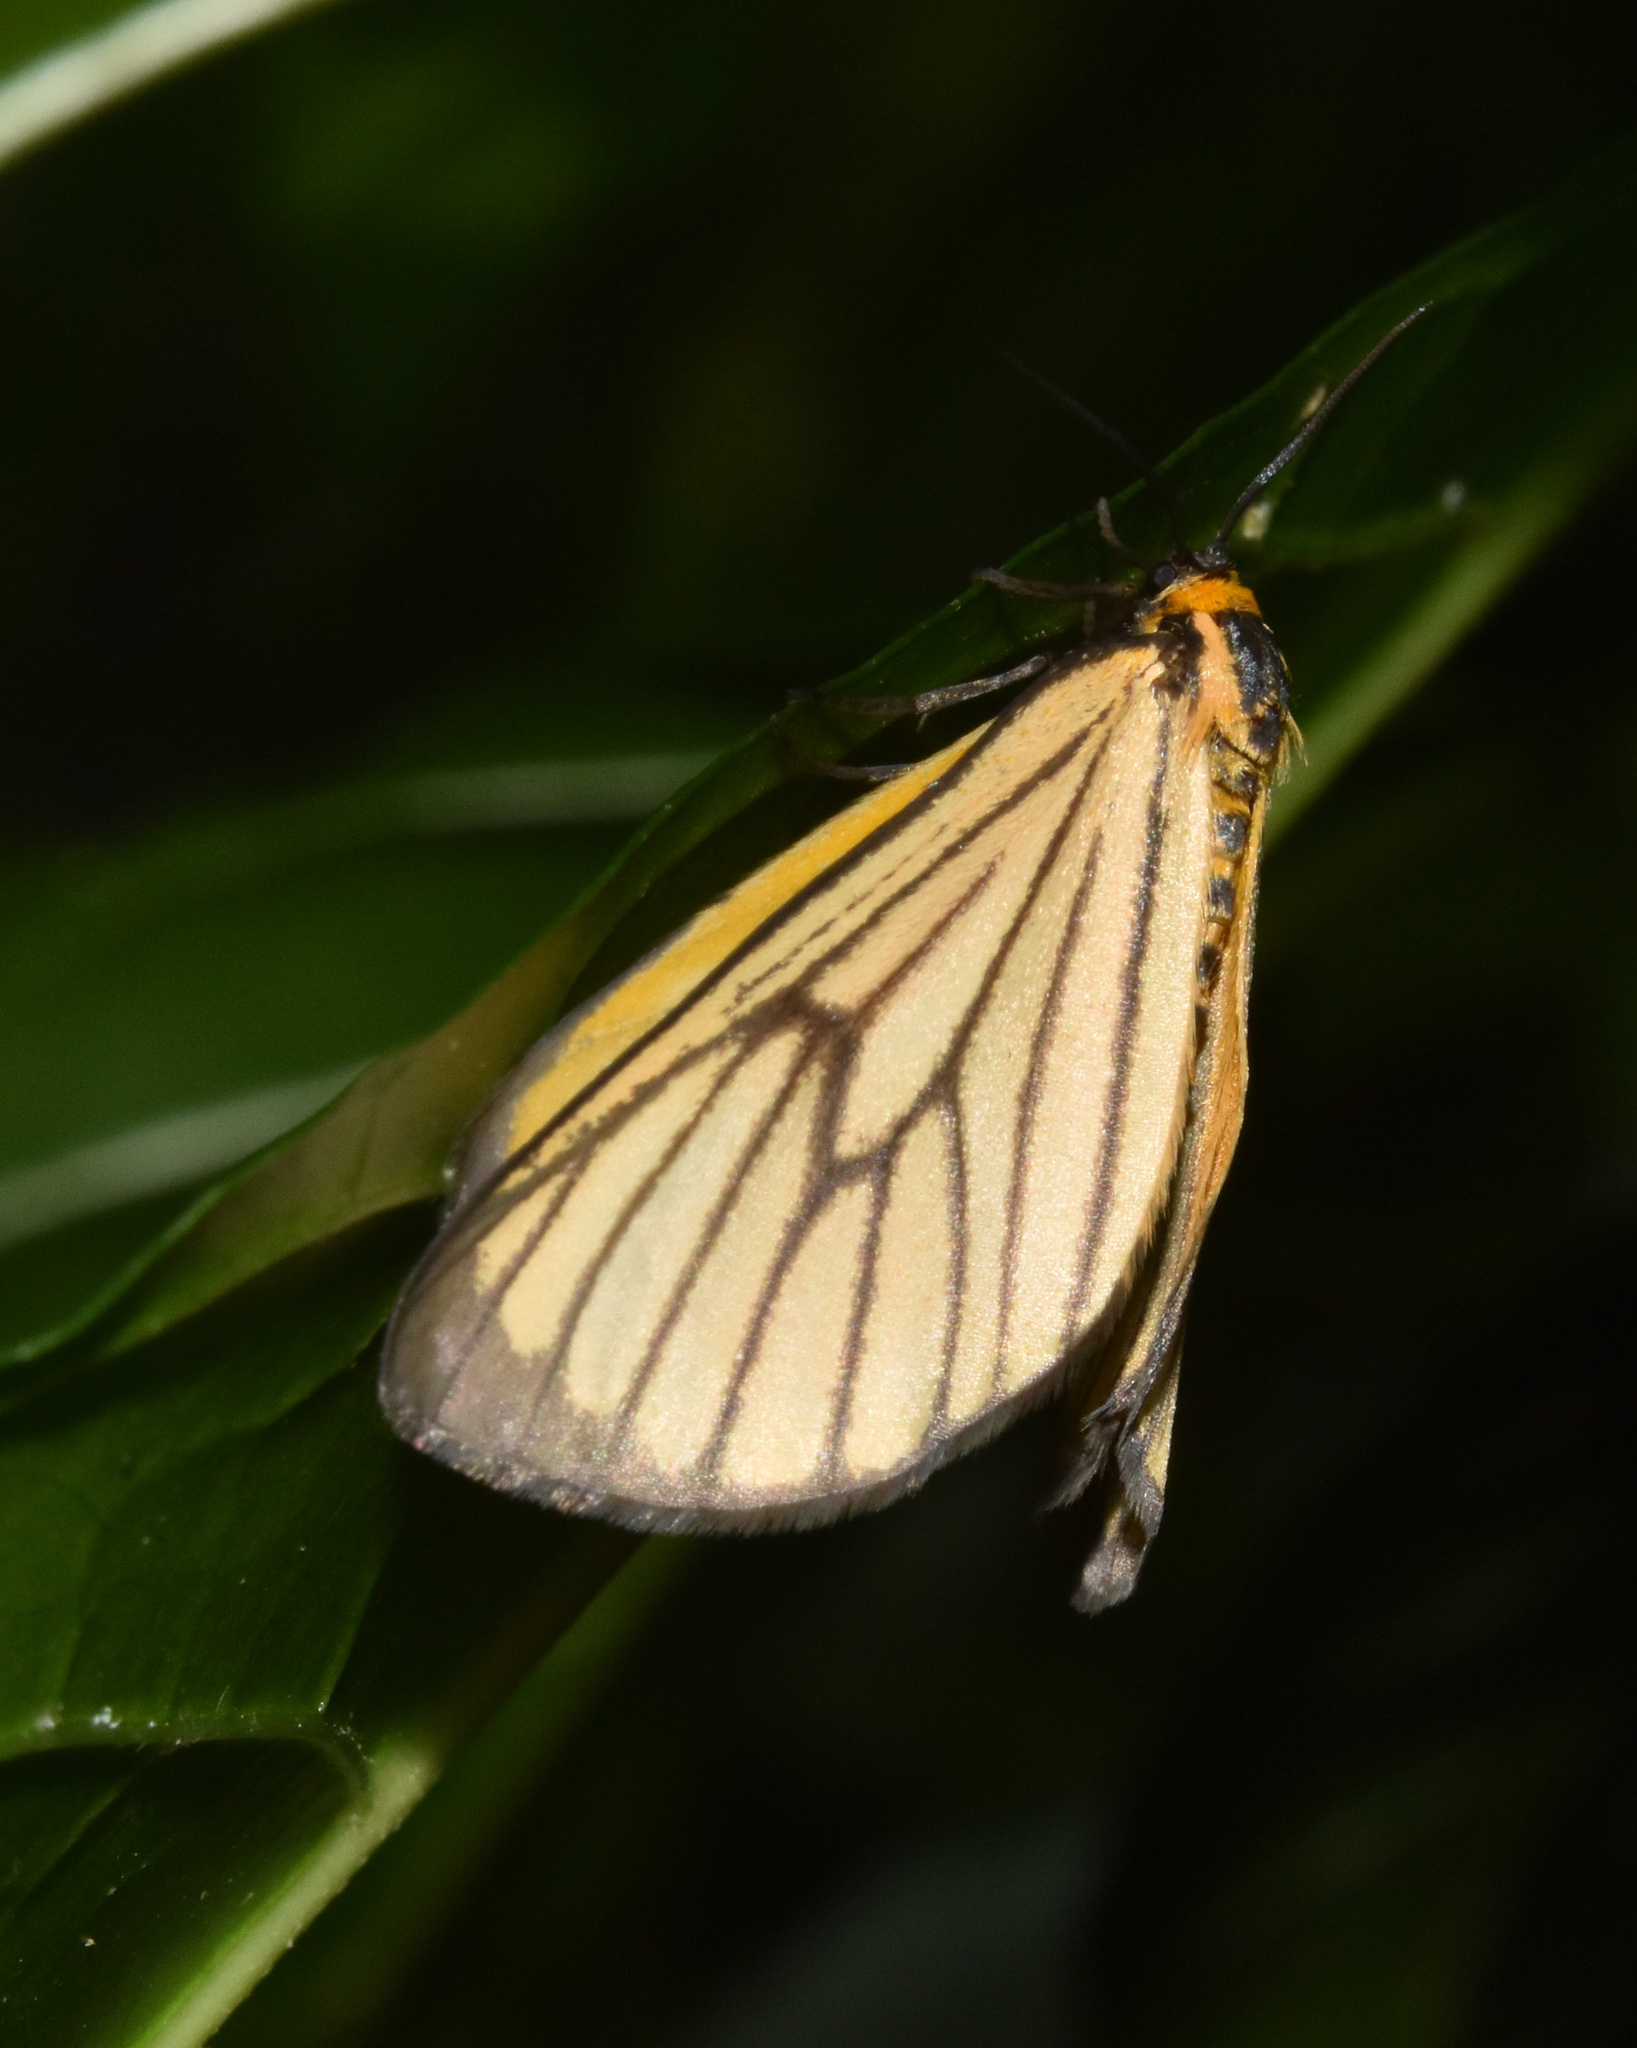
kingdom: Animalia
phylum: Arthropoda
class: Insecta
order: Lepidoptera
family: Geometridae
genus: Petovia
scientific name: Petovia marginata
